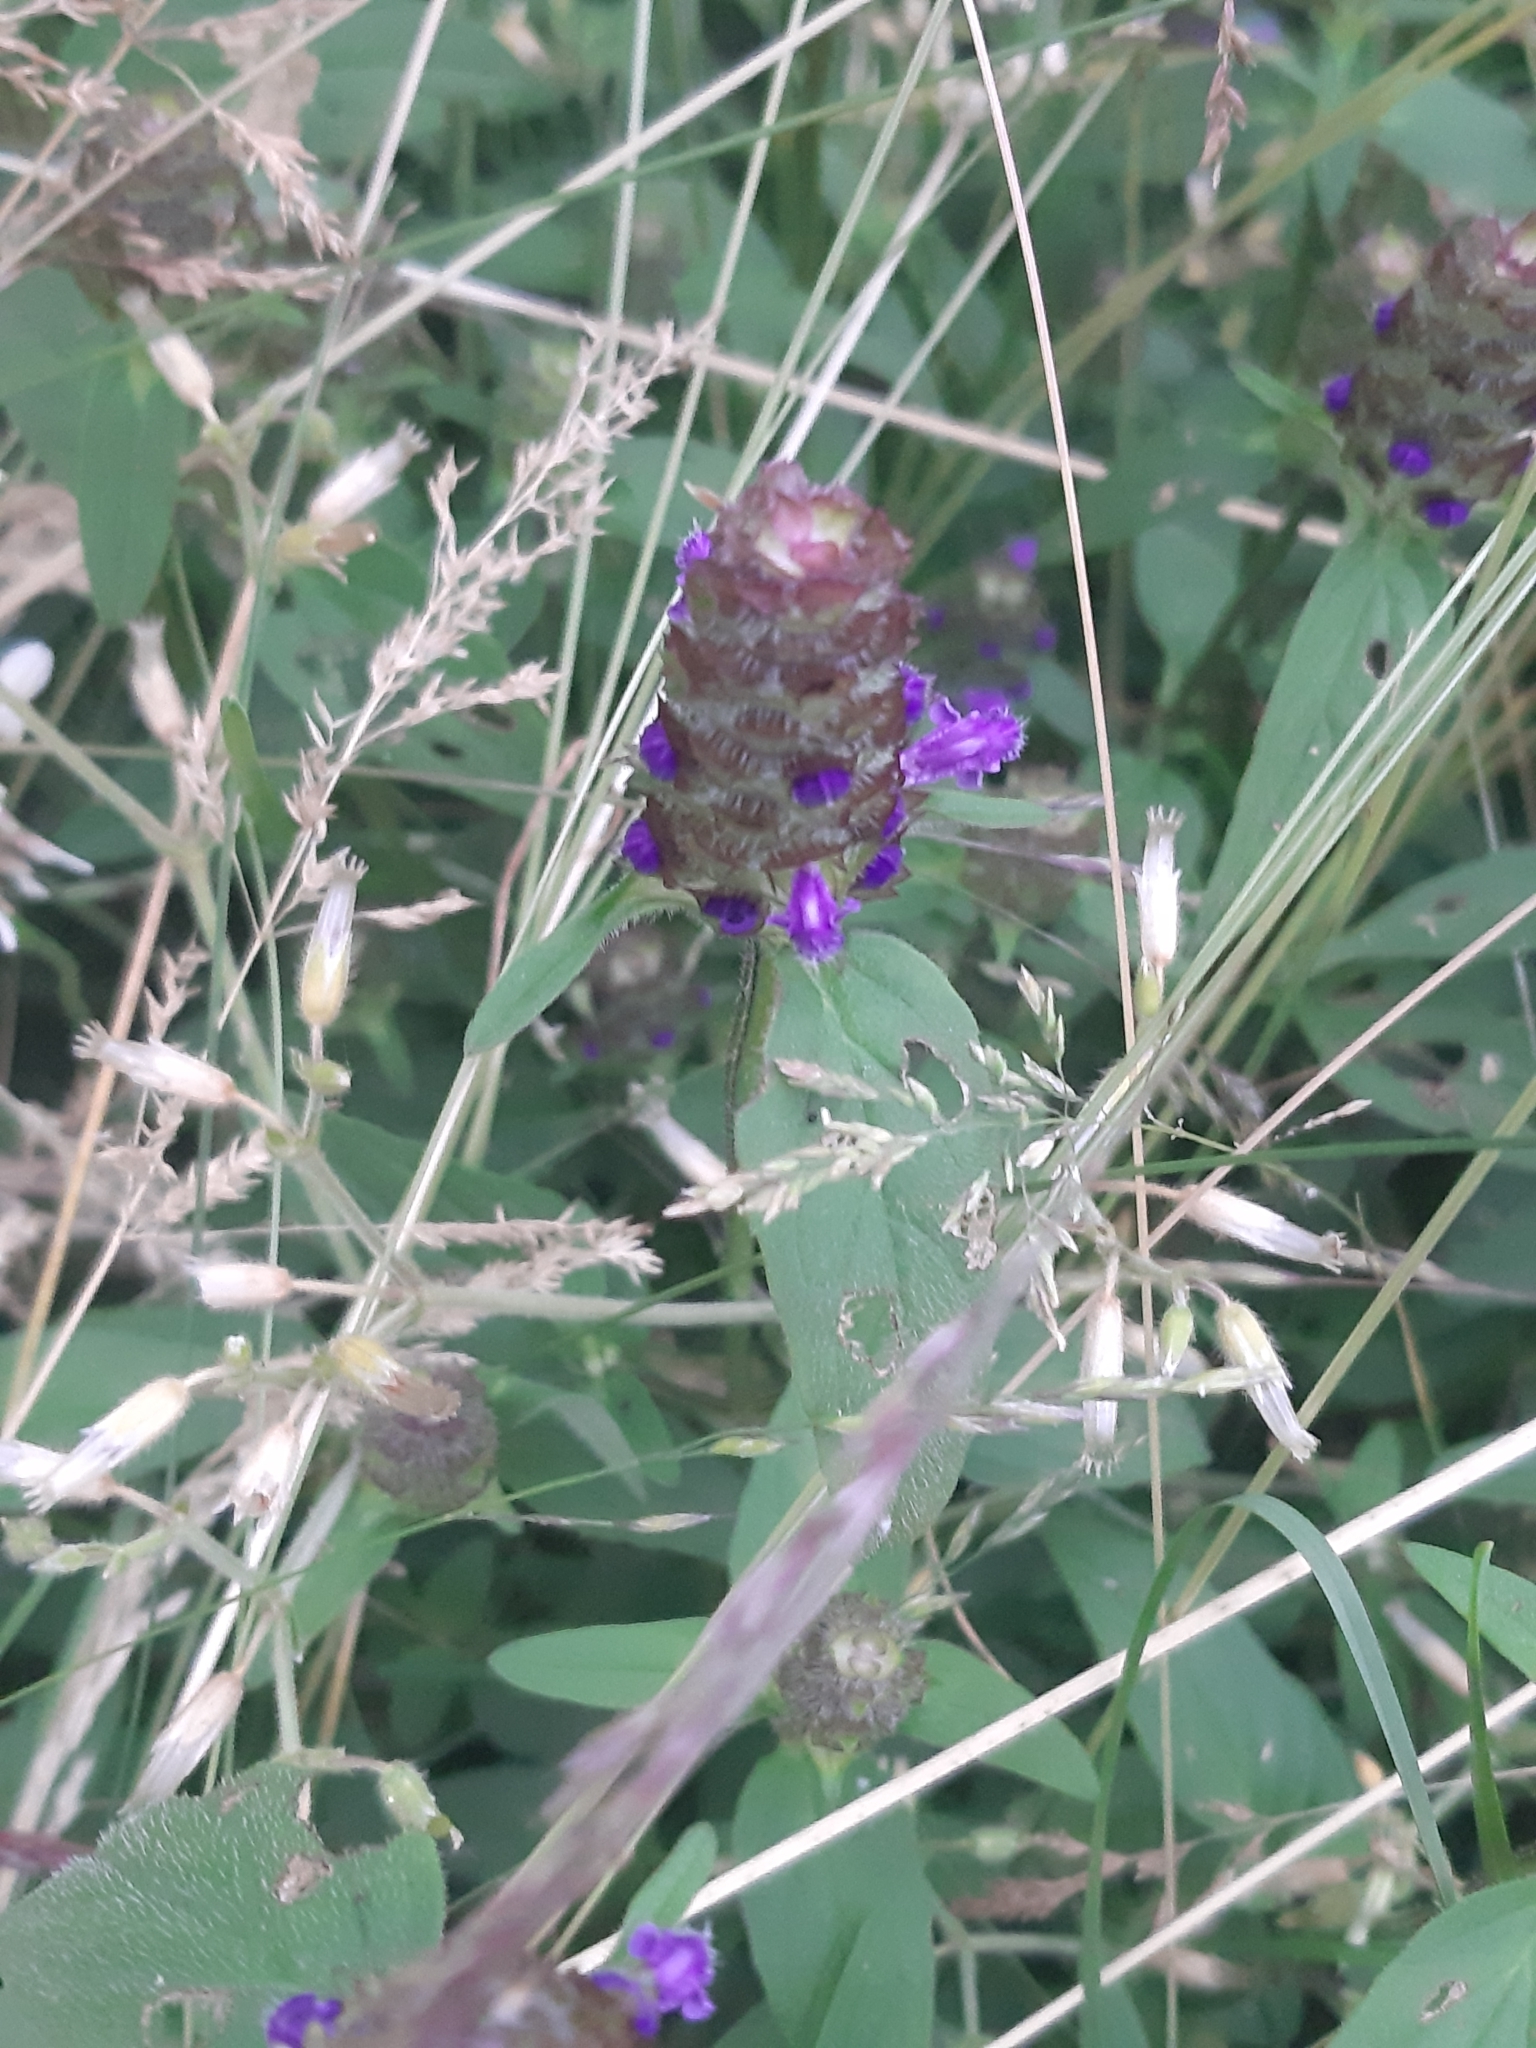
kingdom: Plantae
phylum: Tracheophyta
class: Magnoliopsida
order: Lamiales
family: Lamiaceae
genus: Prunella
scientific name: Prunella vulgaris
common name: Heal-all
